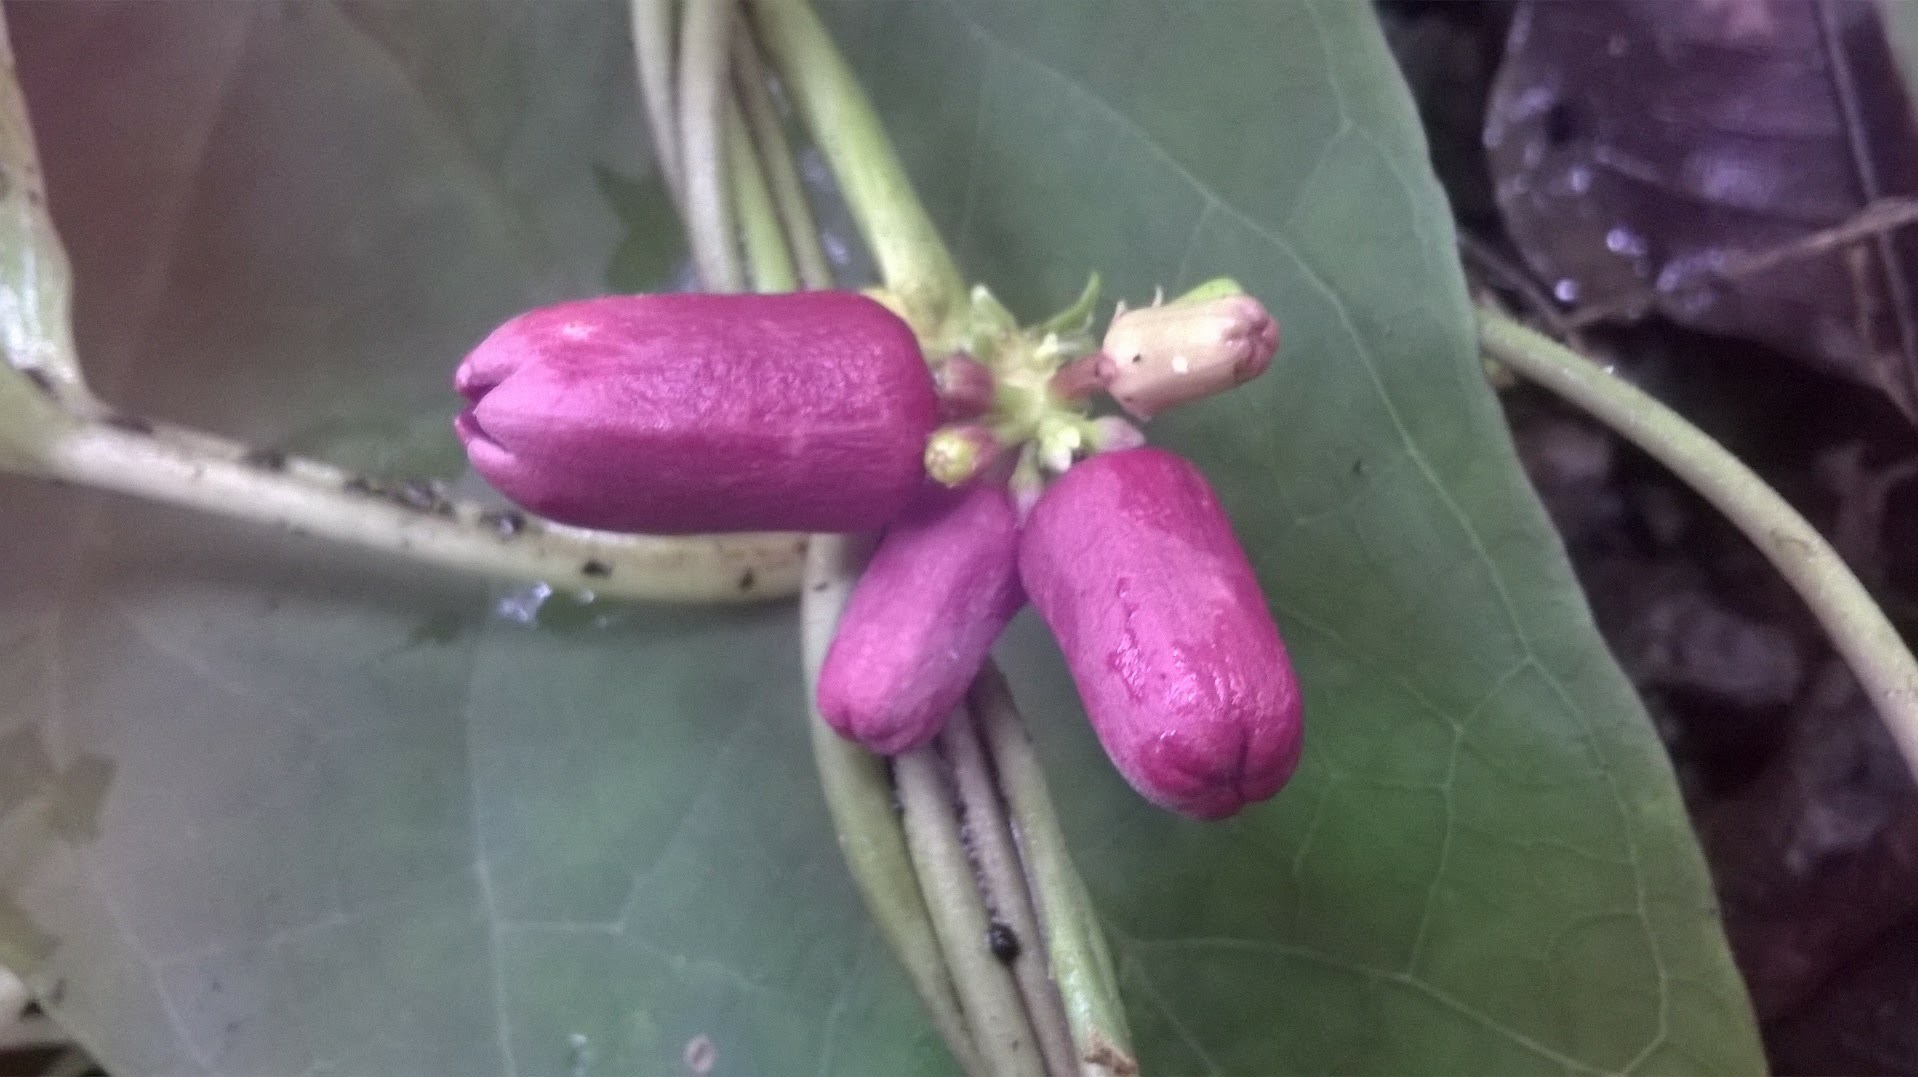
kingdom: Plantae
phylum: Tracheophyta
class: Magnoliopsida
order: Gentianales
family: Apocynaceae
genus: Heterostemma
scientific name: Heterostemma deccanense
